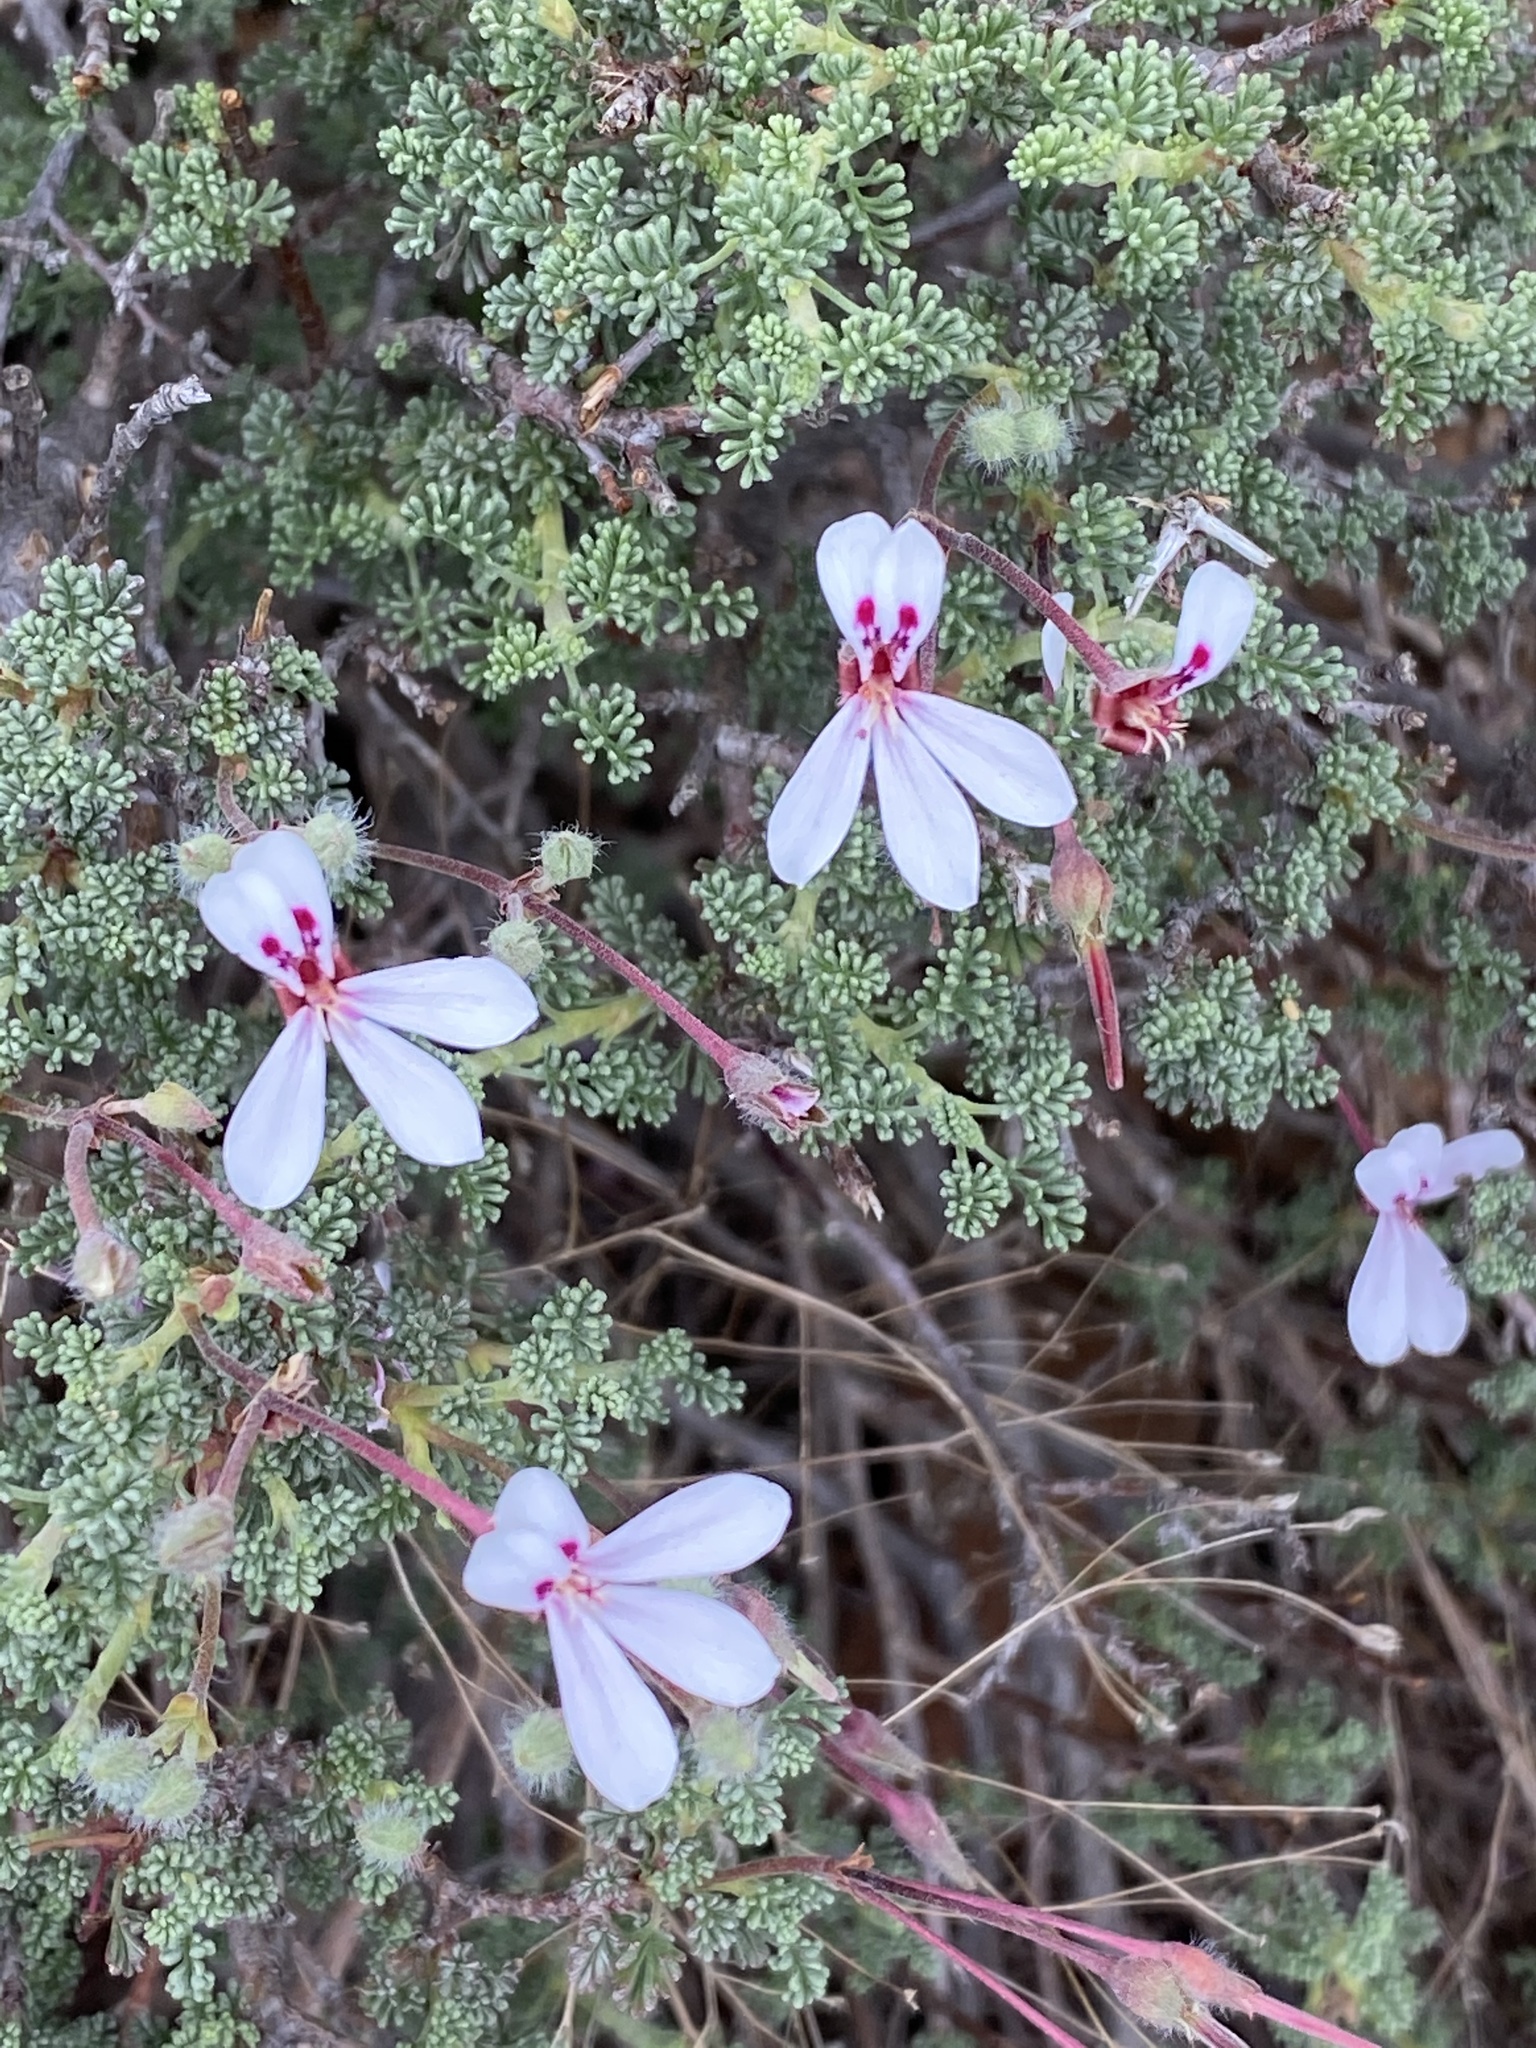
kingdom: Plantae
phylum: Tracheophyta
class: Magnoliopsida
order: Geraniales
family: Geraniaceae
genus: Pelargonium
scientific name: Pelargonium abrotanifolium
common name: Southernwood geranium
